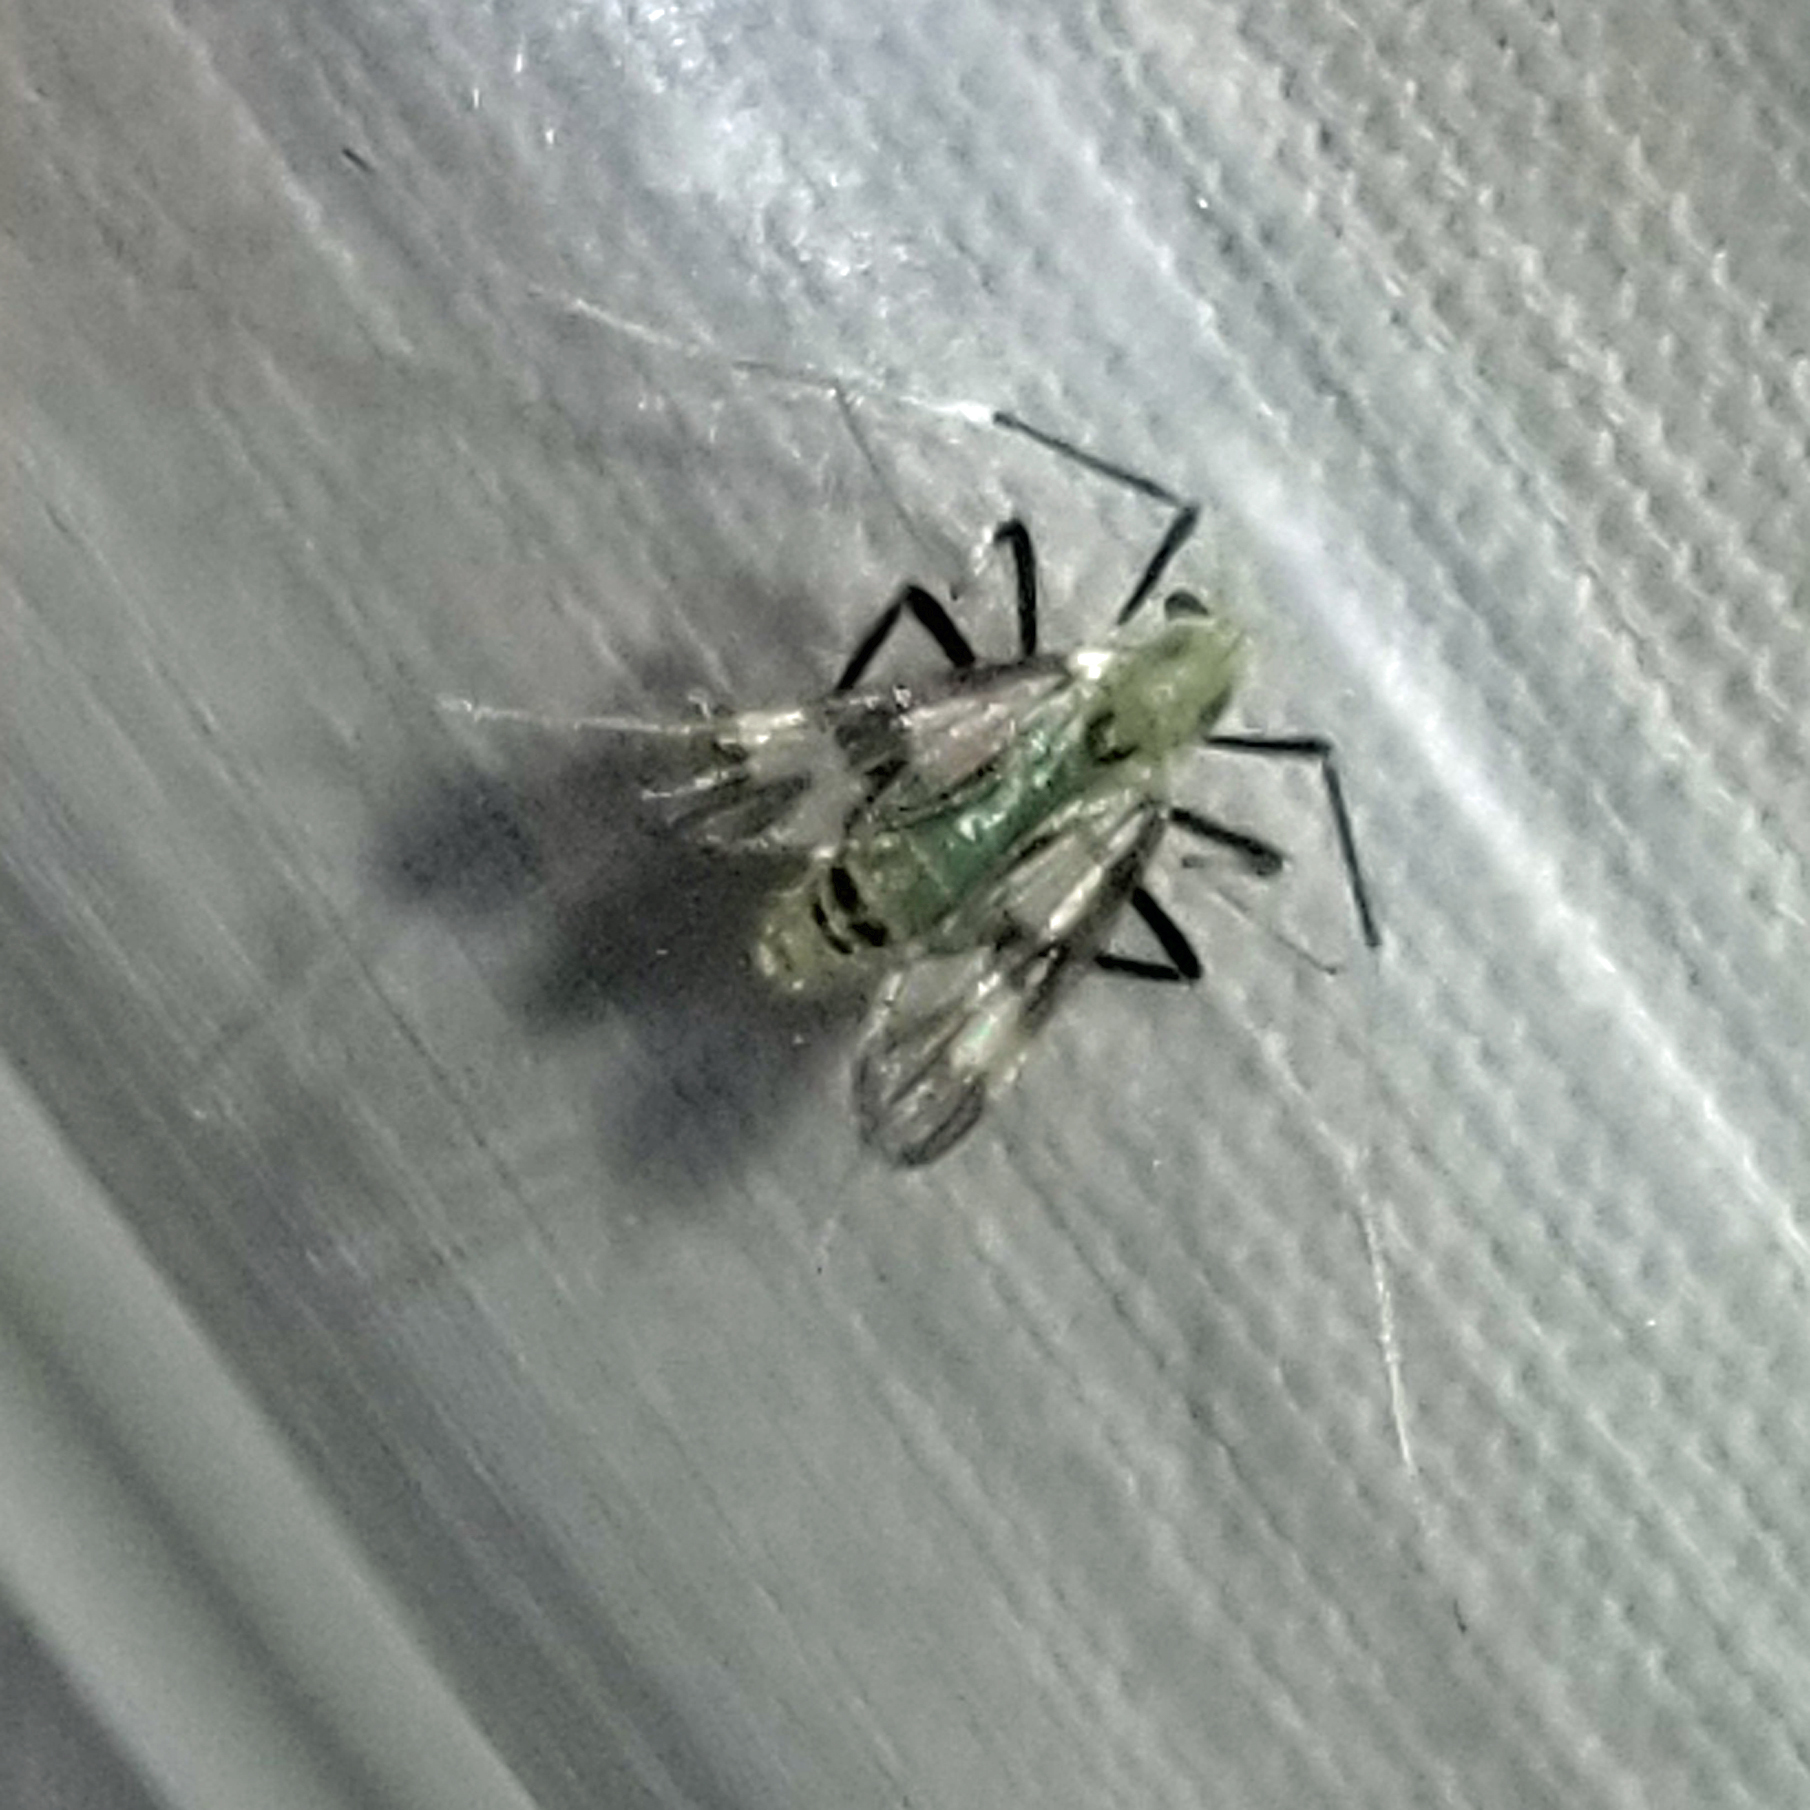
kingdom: Animalia
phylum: Arthropoda
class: Insecta
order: Diptera
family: Chironomidae
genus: Stenochironomus
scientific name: Stenochironomus hilaris
